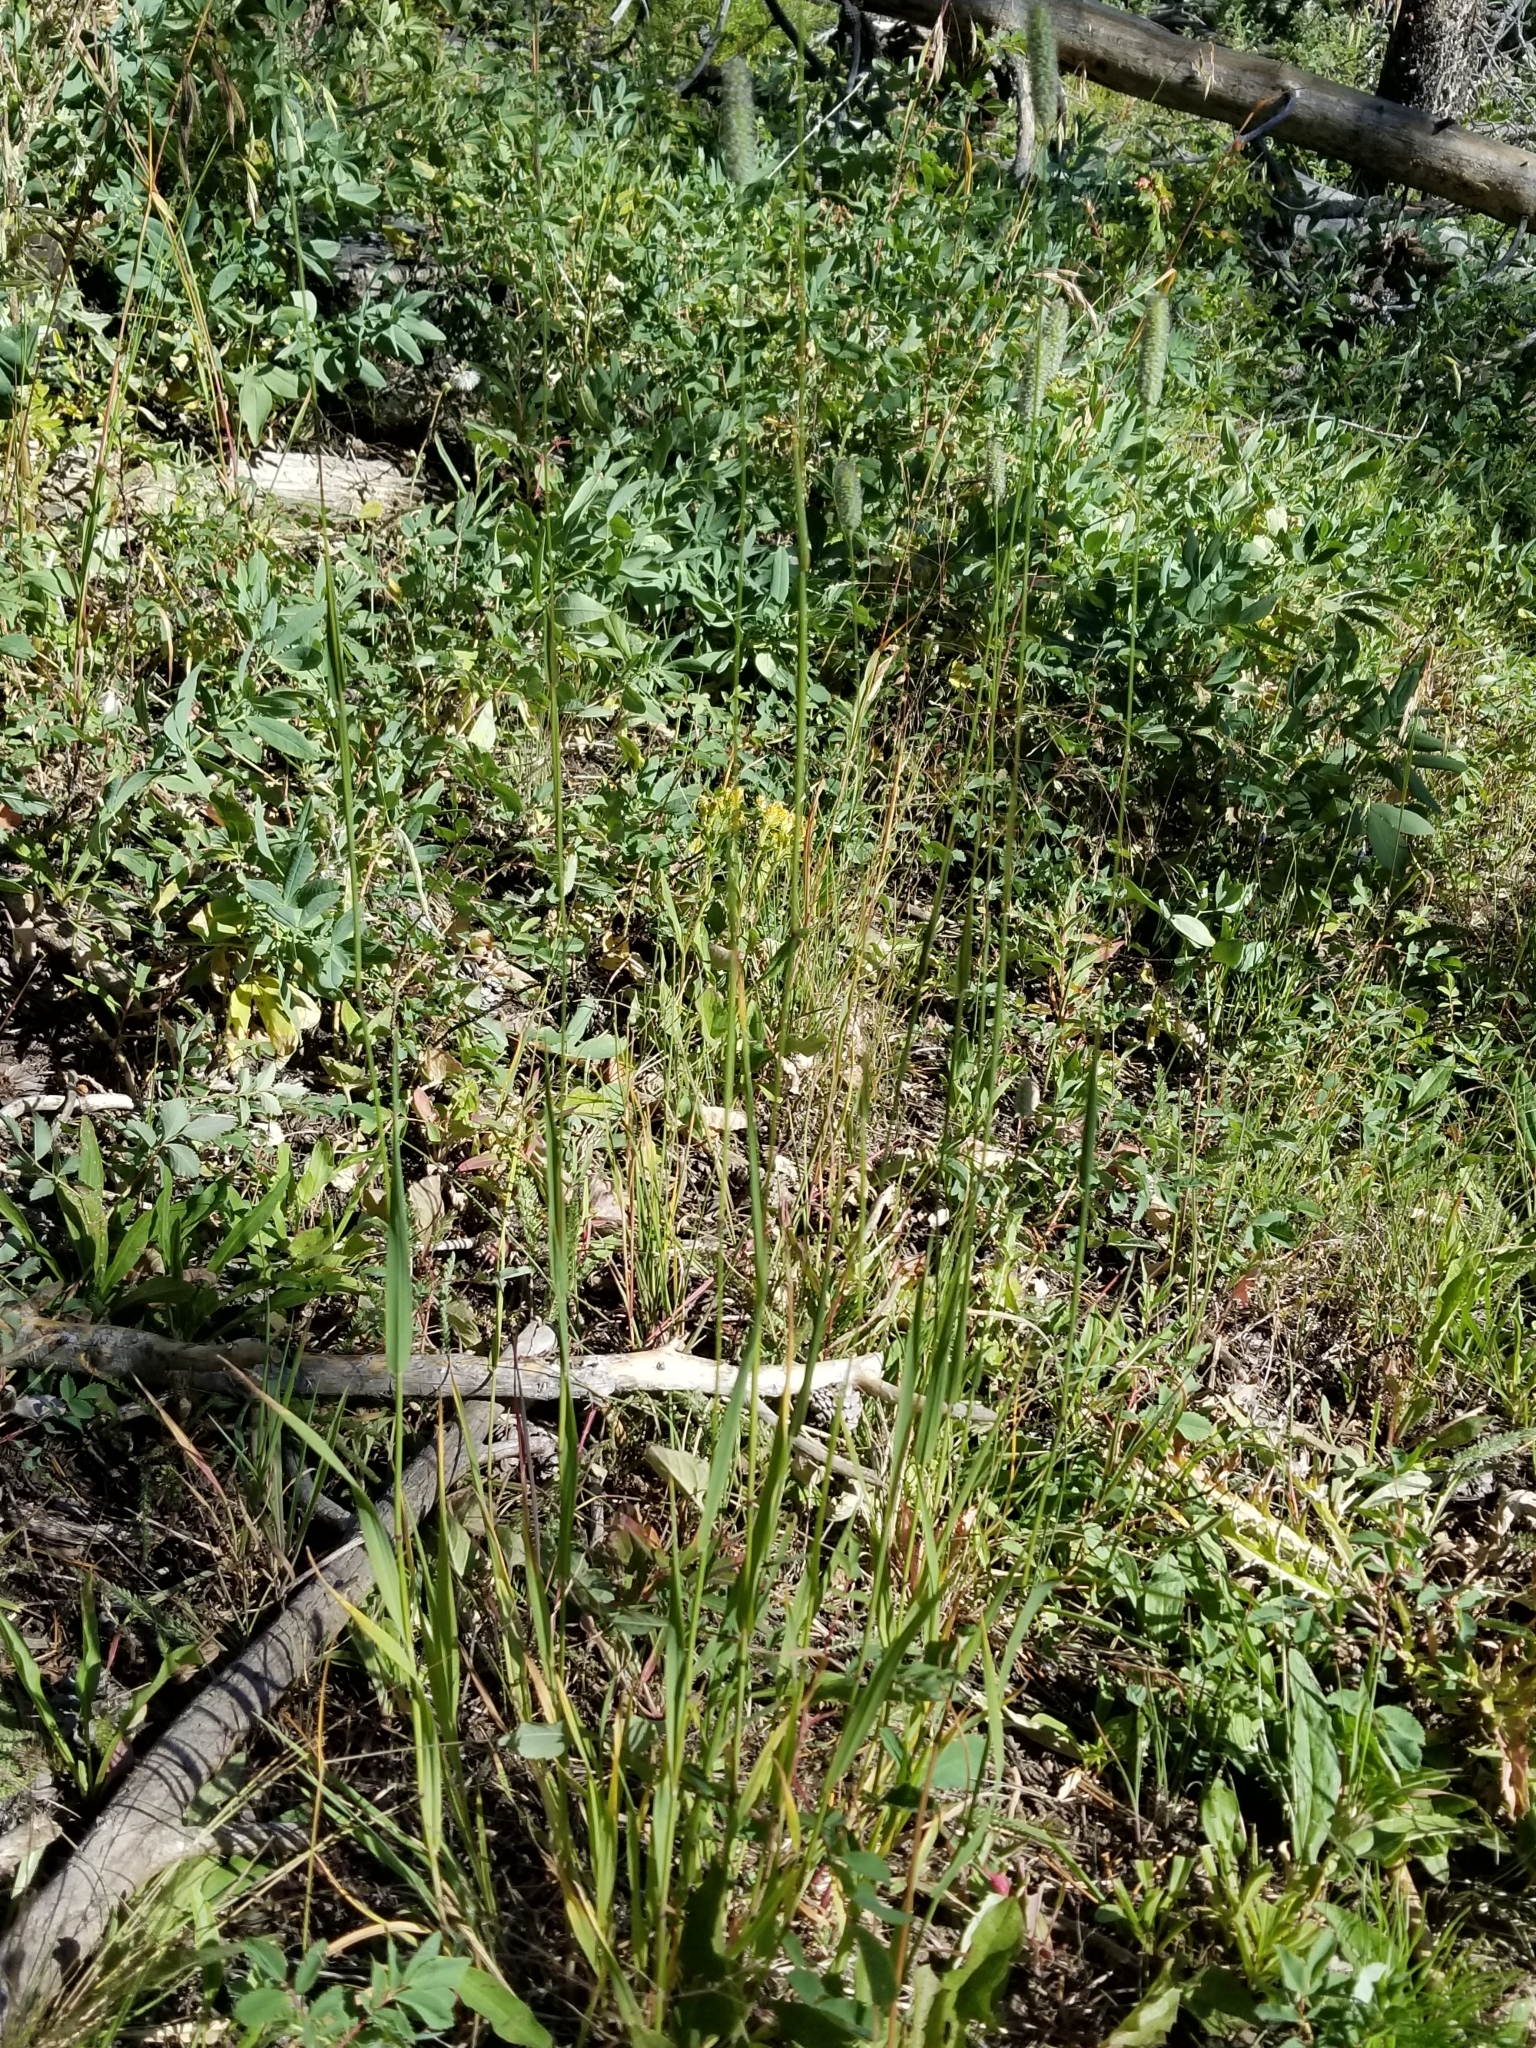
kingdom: Plantae
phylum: Tracheophyta
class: Liliopsida
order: Poales
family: Poaceae
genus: Phleum
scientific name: Phleum pratense
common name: Timothy grass
